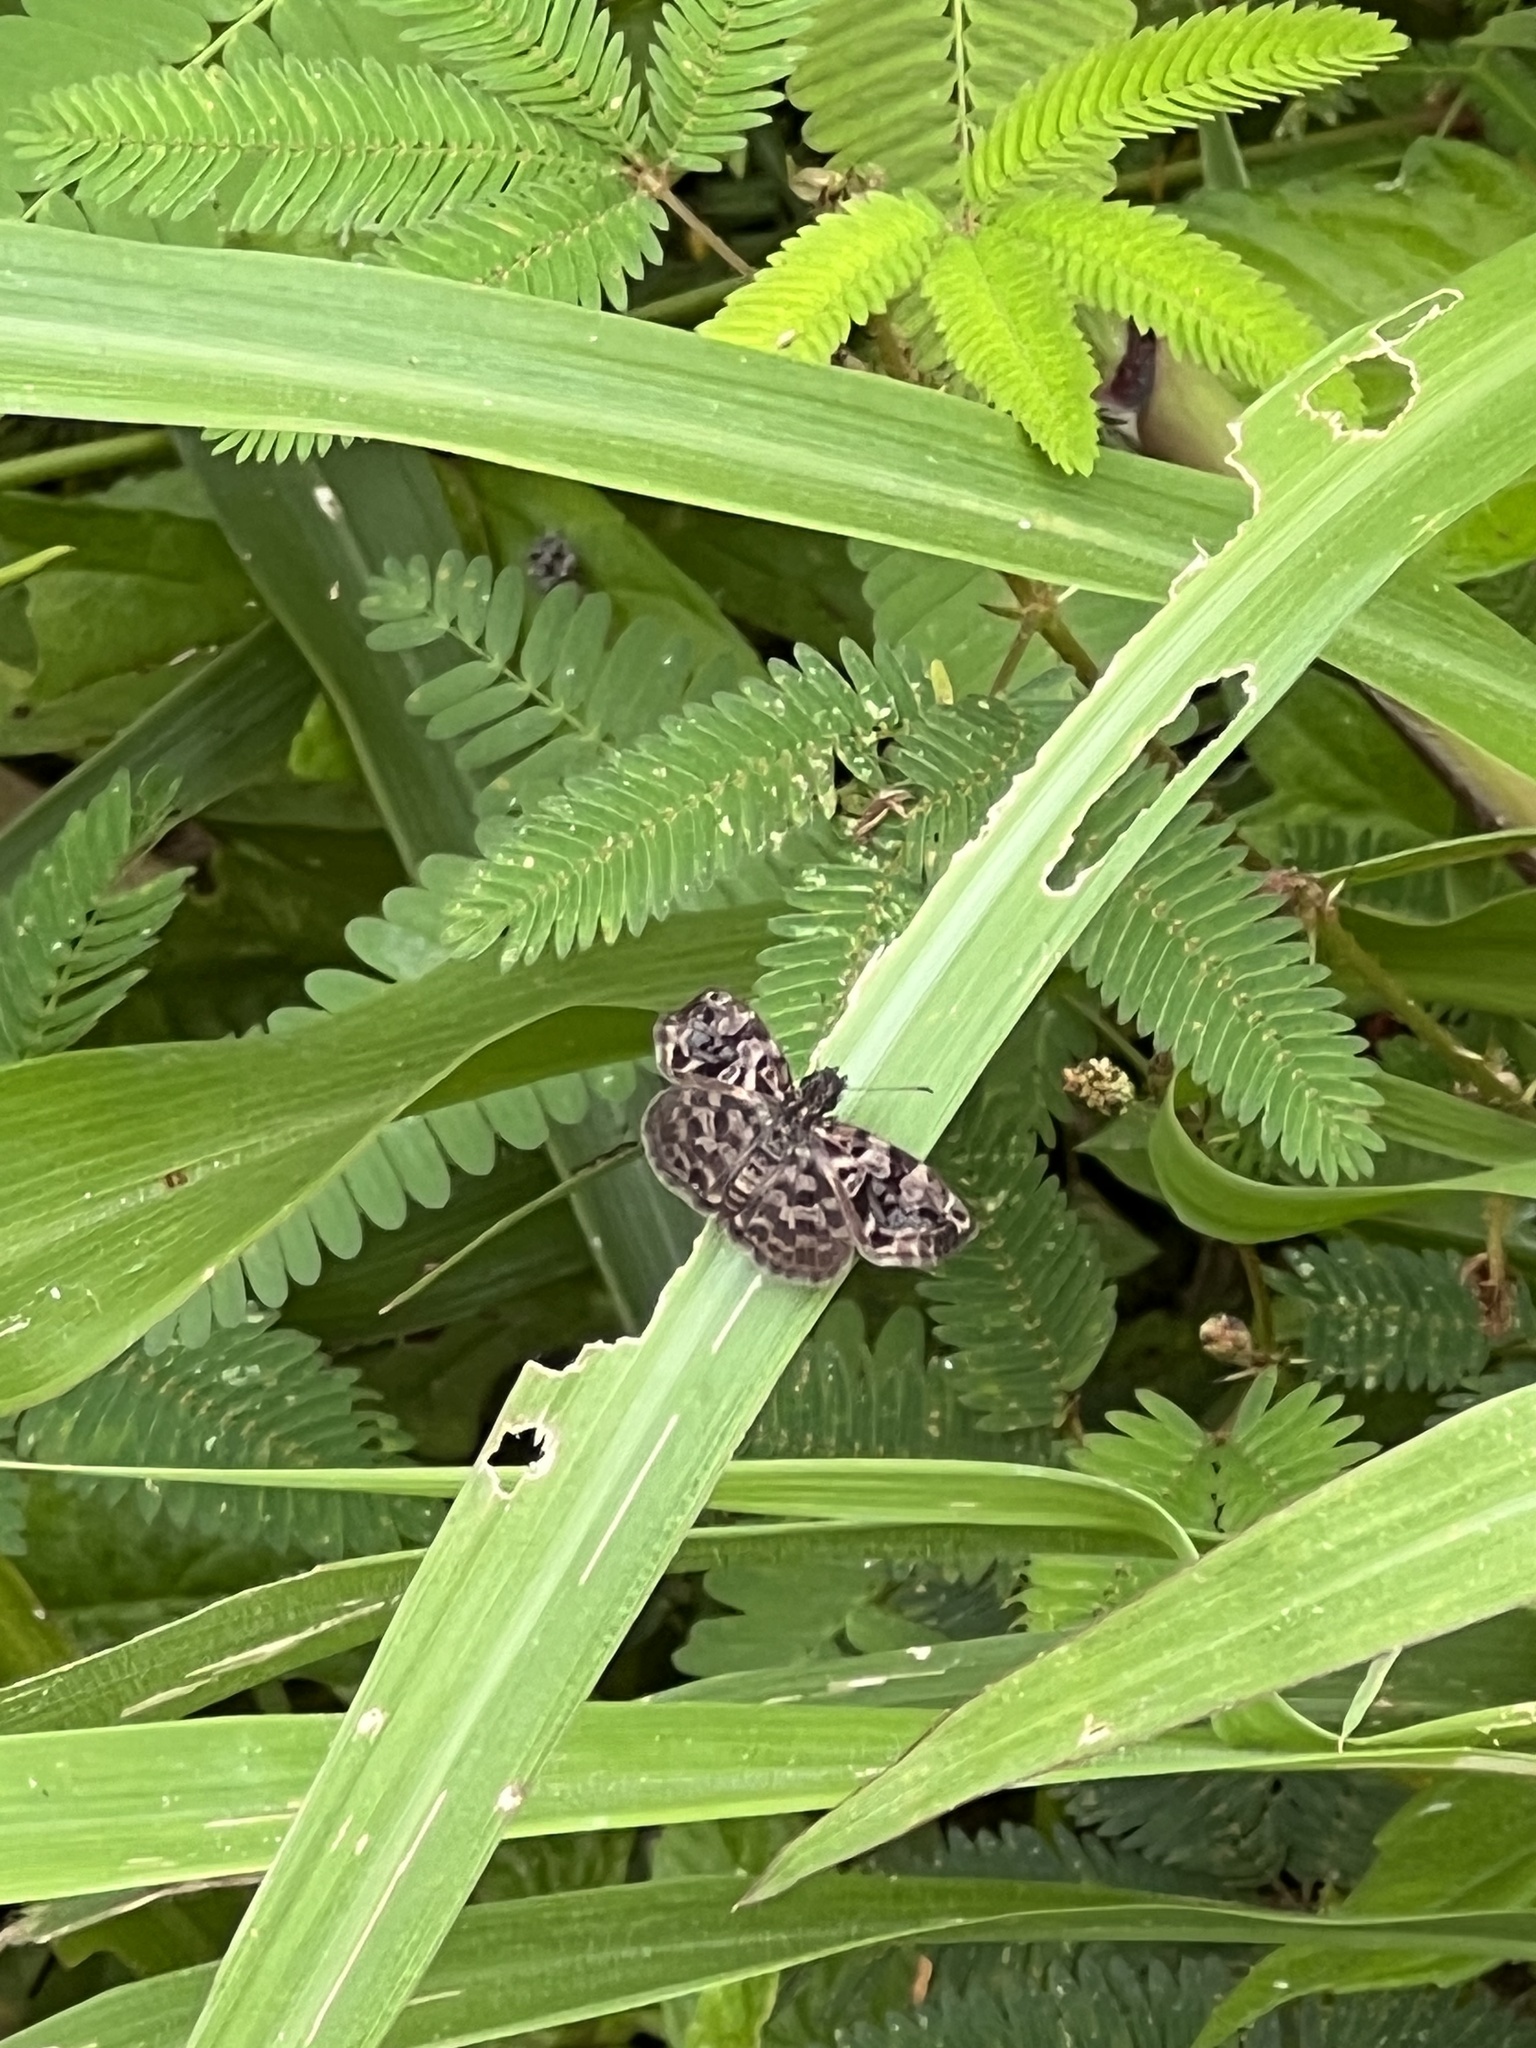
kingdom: Animalia
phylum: Arthropoda
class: Insecta
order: Lepidoptera
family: Hesperiidae
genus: Cycloglypha
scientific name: Cycloglypha thrasibulus
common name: Widespread bent-skipper
